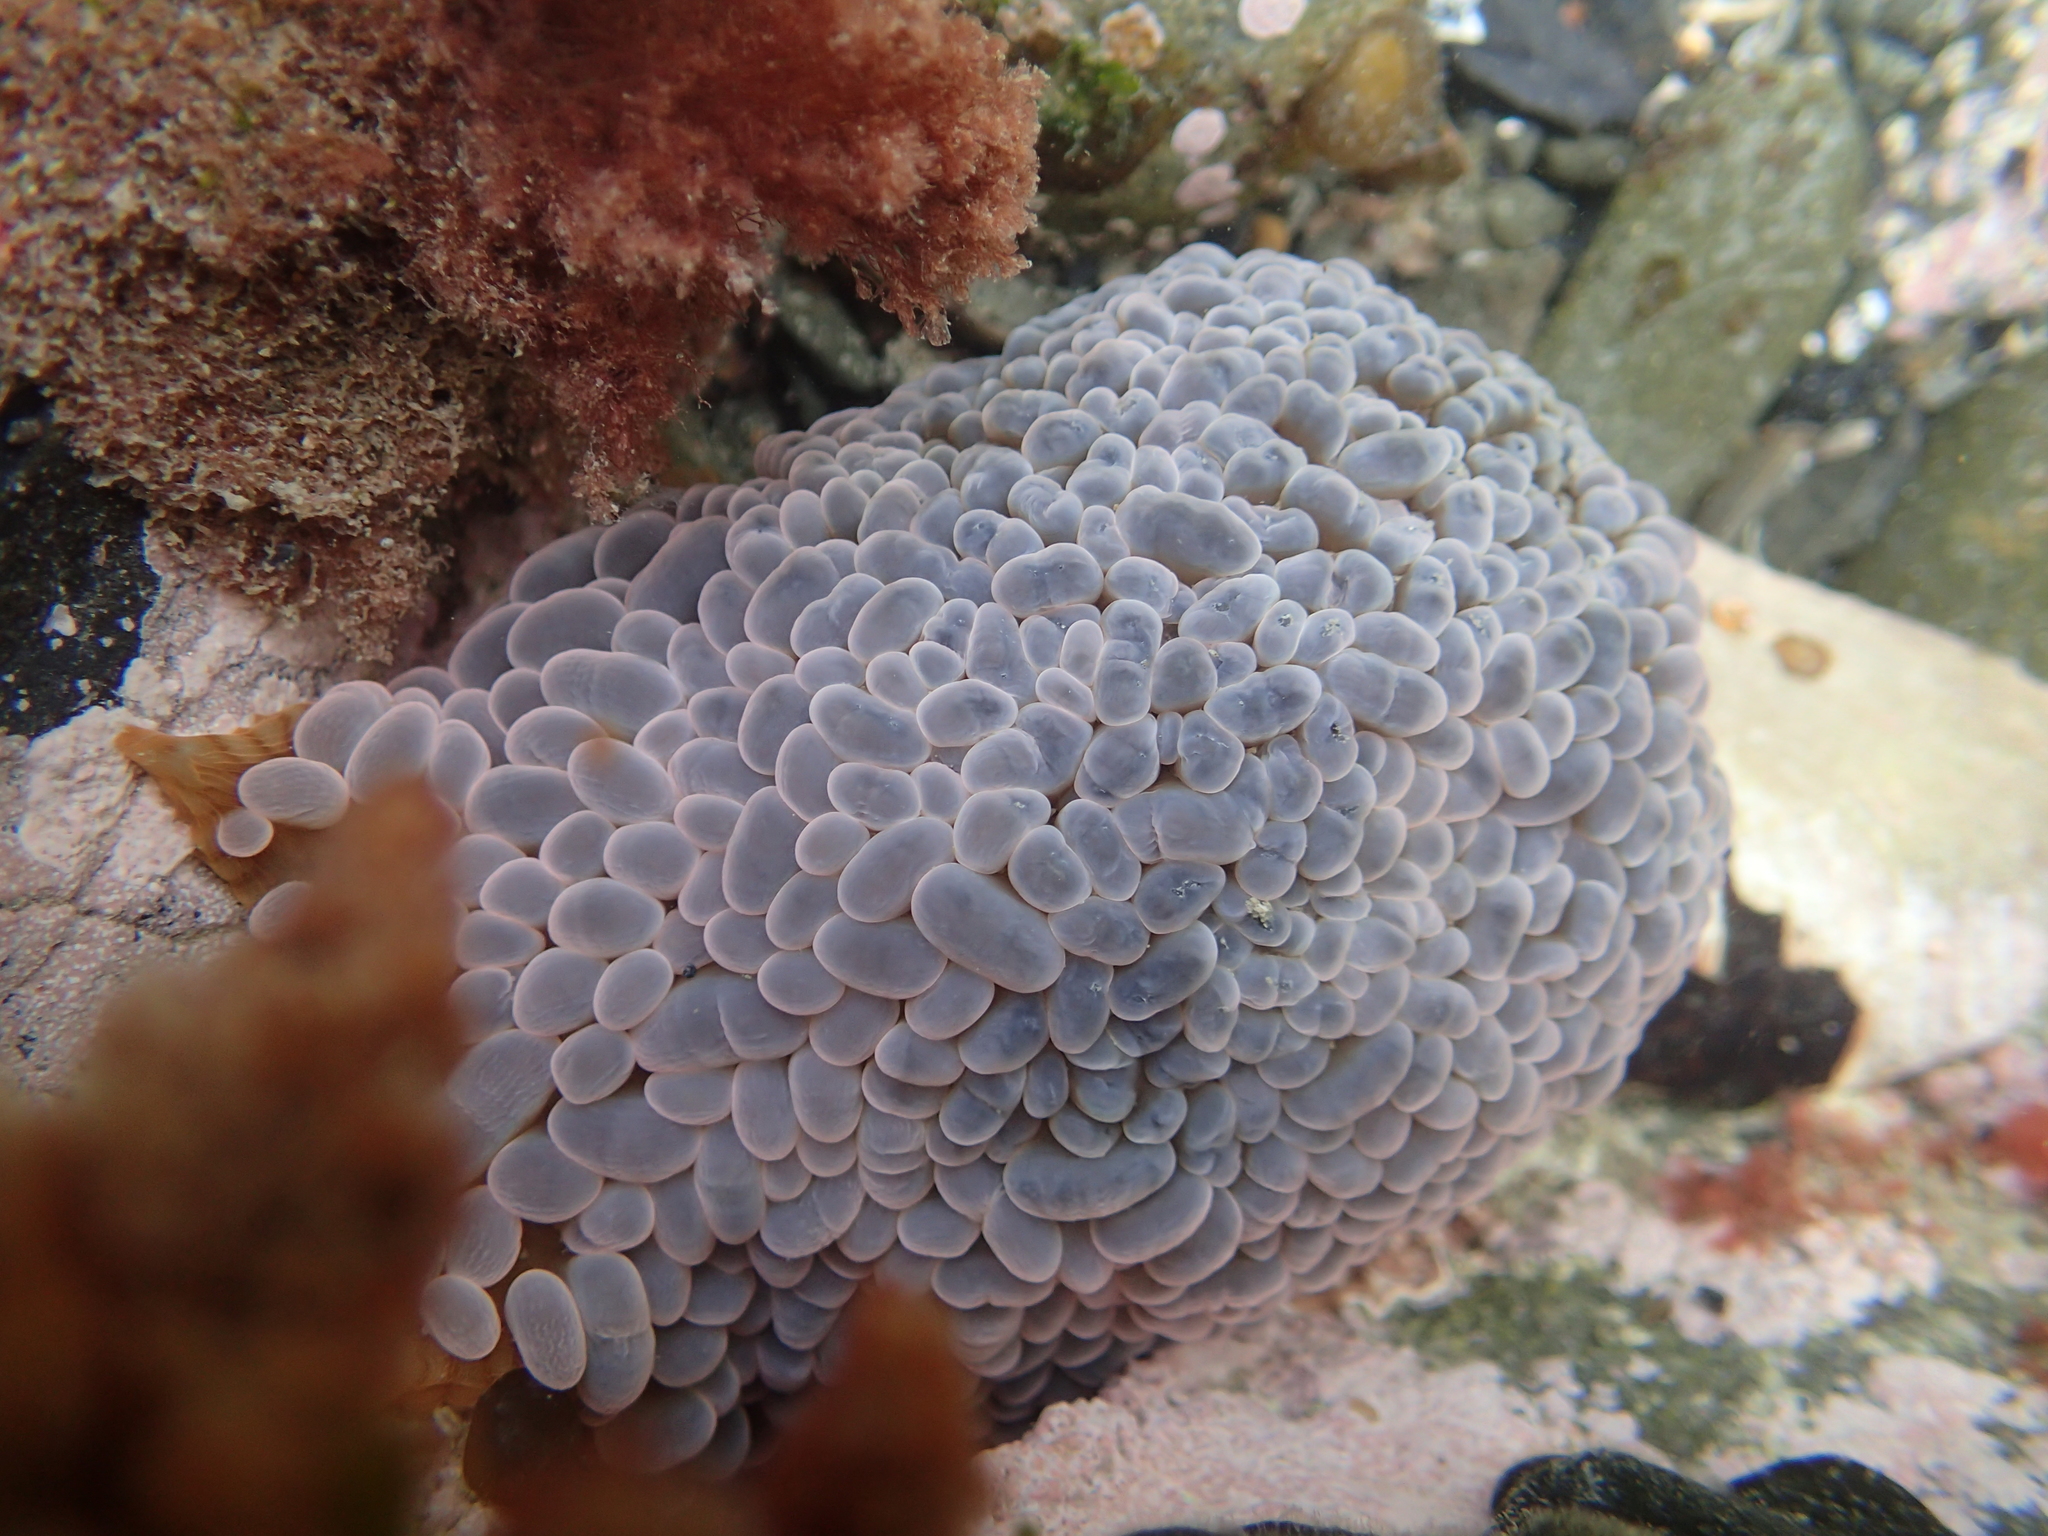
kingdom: Animalia
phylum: Cnidaria
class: Anthozoa
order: Actiniaria
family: Actiniidae
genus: Phlyctenactis
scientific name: Phlyctenactis tuberculosa
